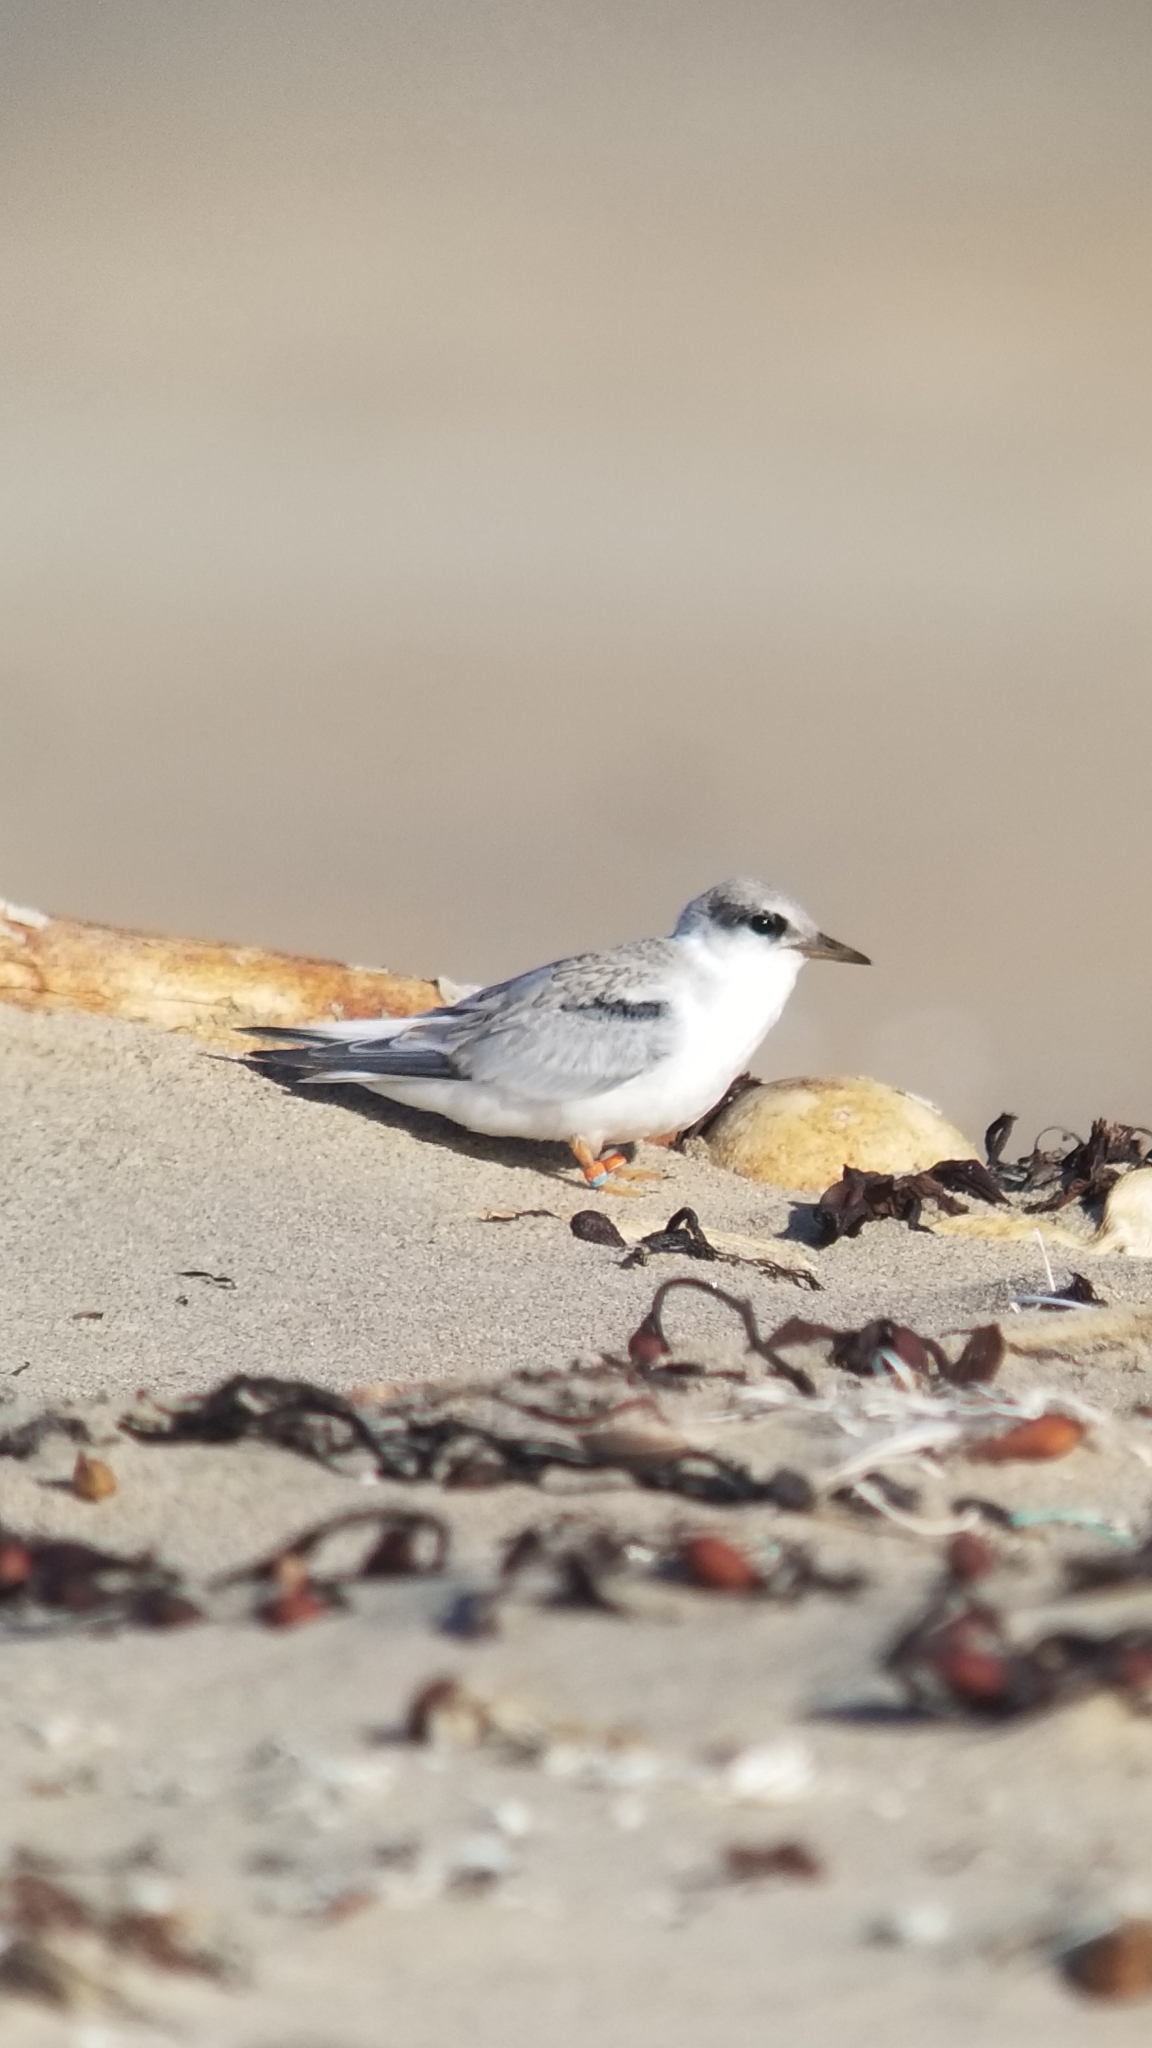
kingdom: Animalia
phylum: Chordata
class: Aves
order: Charadriiformes
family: Laridae
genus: Sternula
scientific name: Sternula antillarum
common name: Least tern
